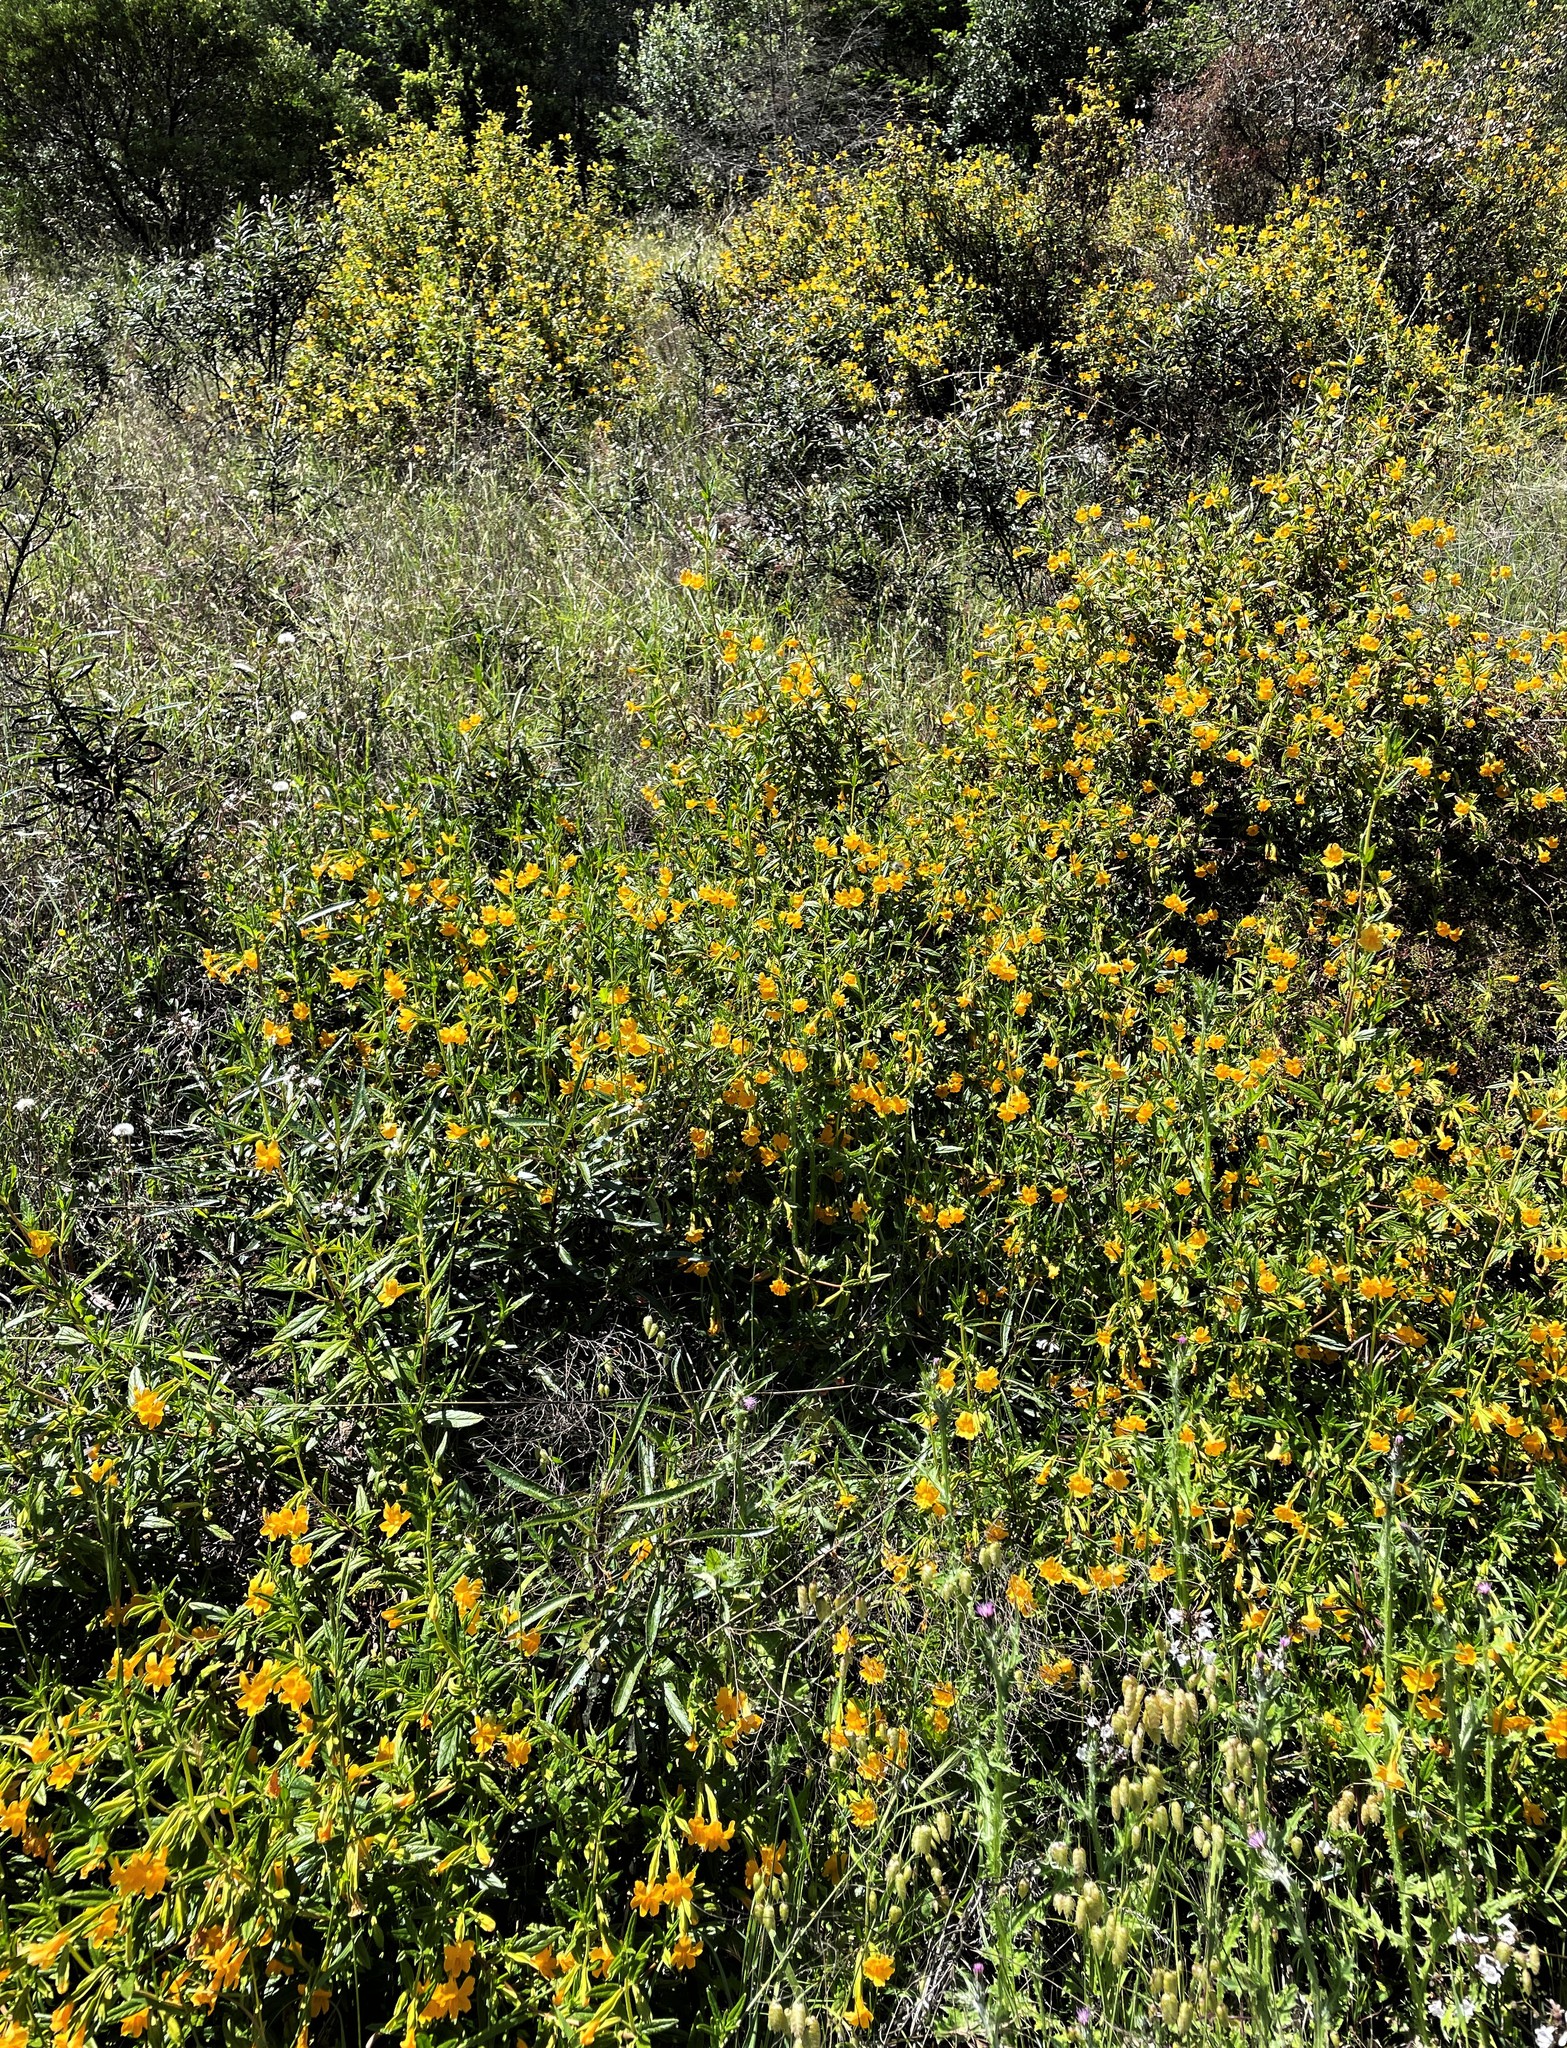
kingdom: Plantae
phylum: Tracheophyta
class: Magnoliopsida
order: Lamiales
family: Phrymaceae
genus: Diplacus
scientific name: Diplacus aurantiacus
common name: Bush monkey-flower
